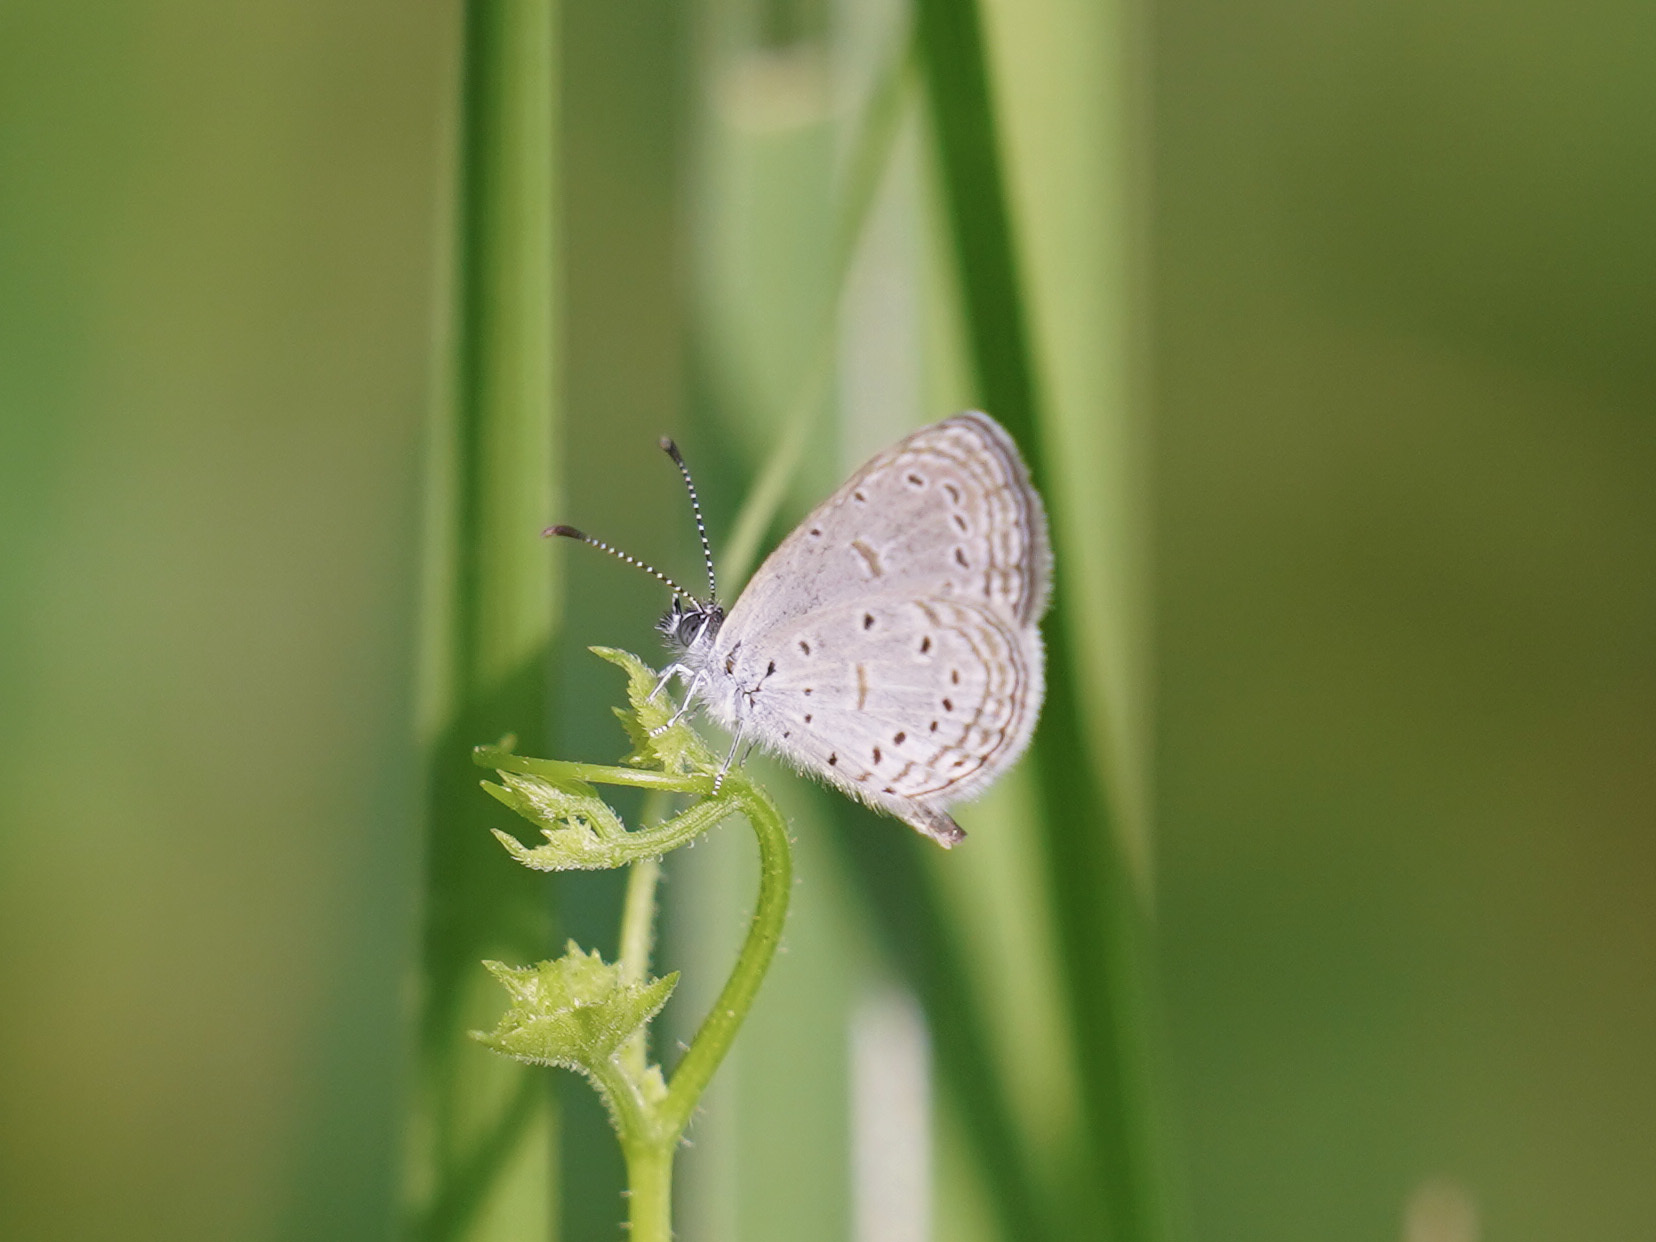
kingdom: Animalia
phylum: Arthropoda
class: Insecta
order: Lepidoptera
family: Lycaenidae
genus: Zizula
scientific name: Zizula hylax
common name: Gaika blue
